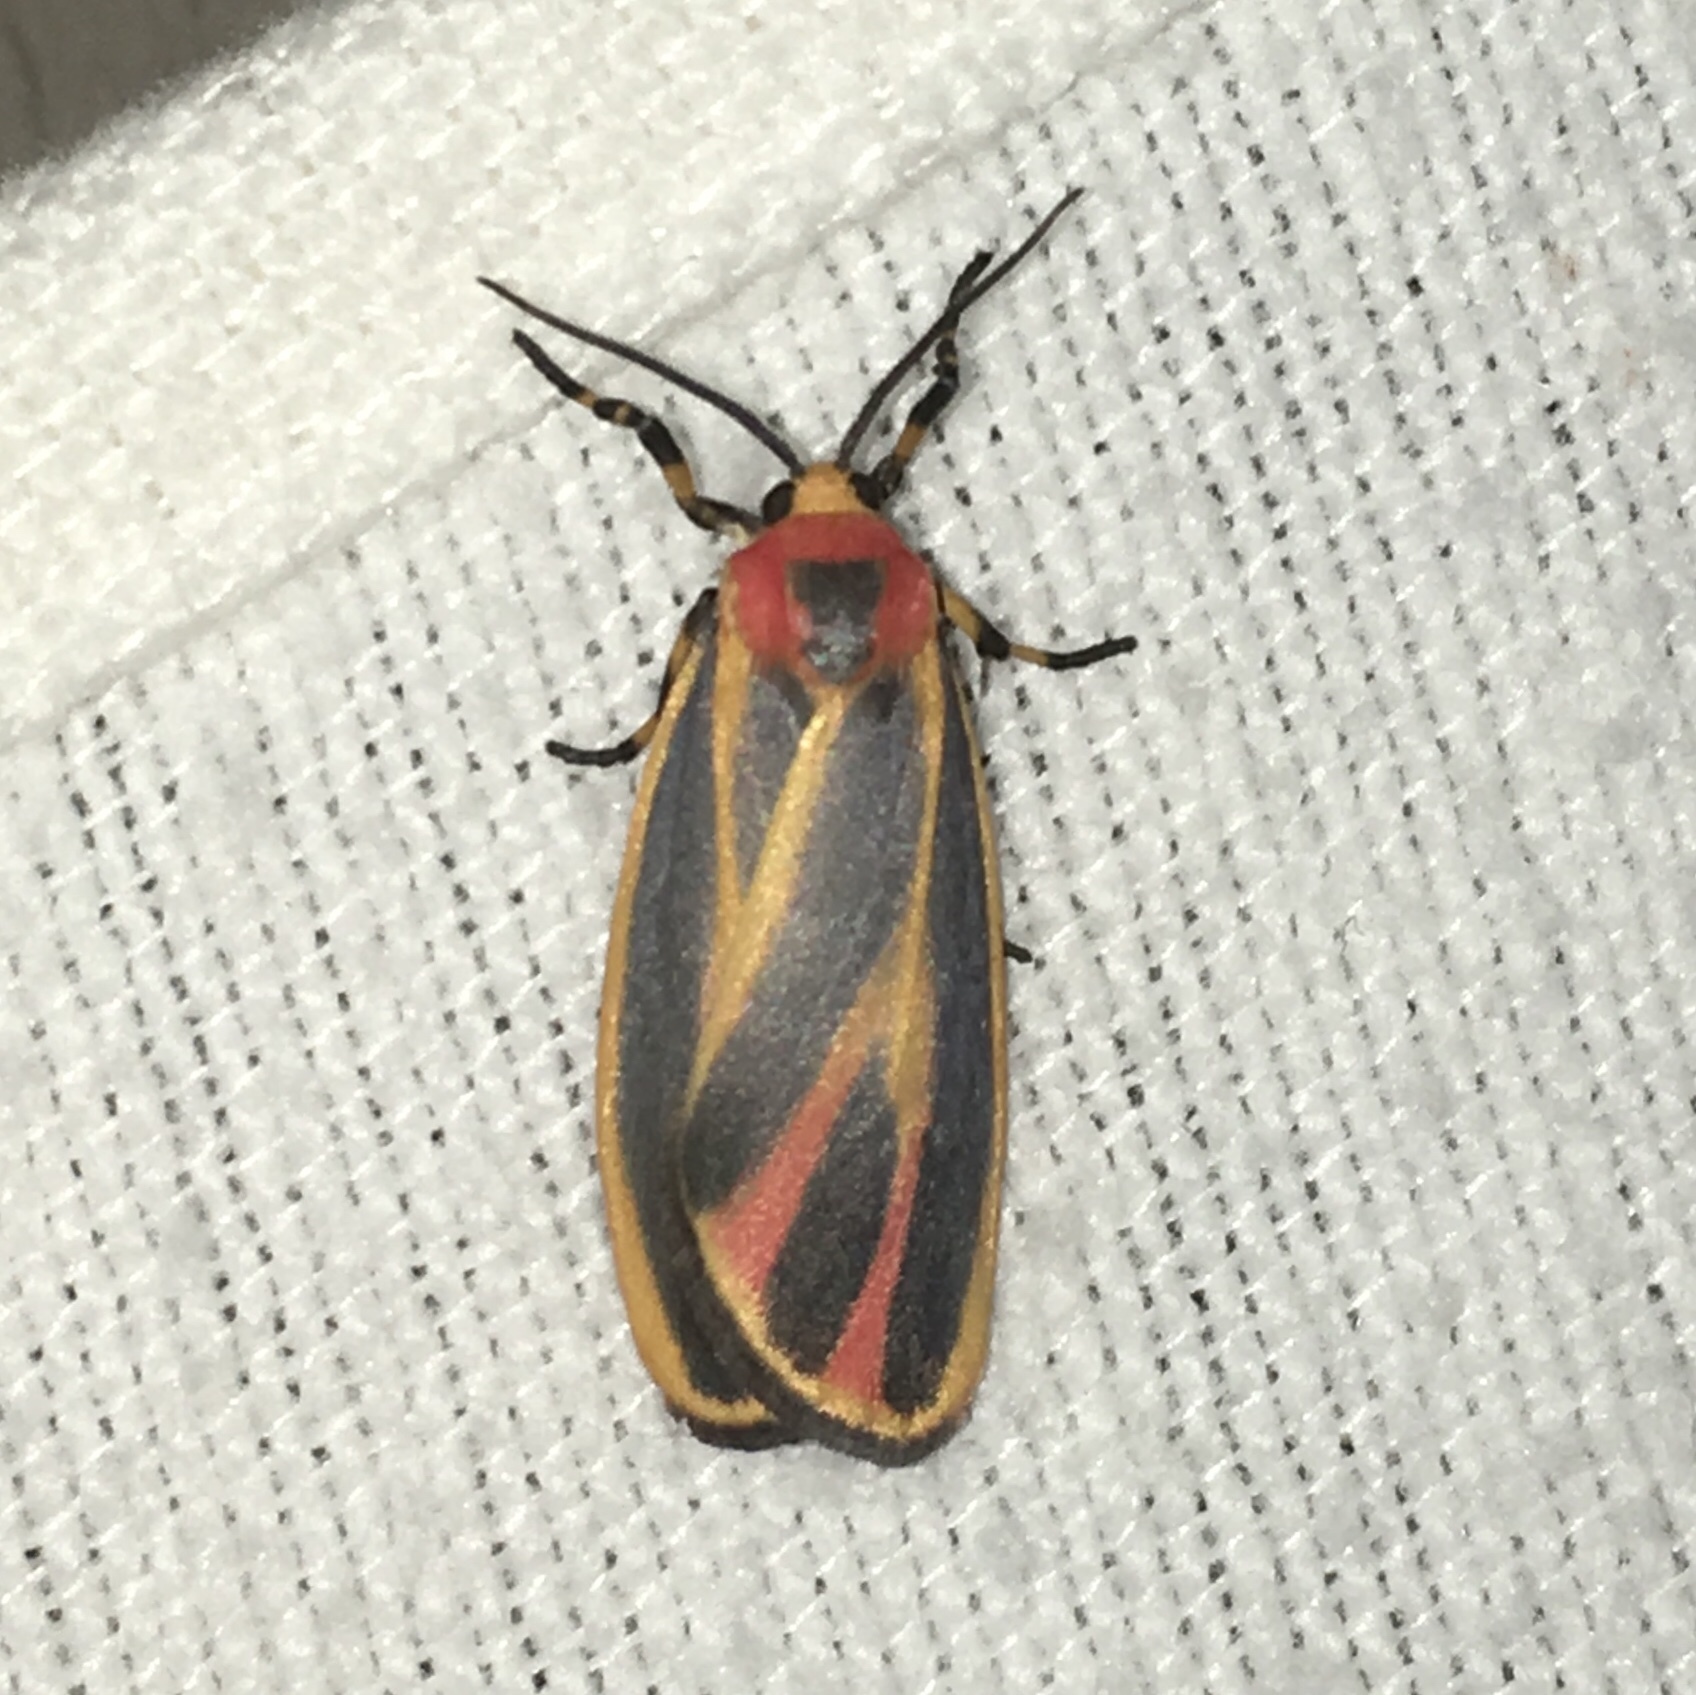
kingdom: Animalia
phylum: Arthropoda
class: Insecta
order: Lepidoptera
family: Erebidae
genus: Hypoprepia
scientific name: Hypoprepia fucosa
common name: Painted lichen moth
